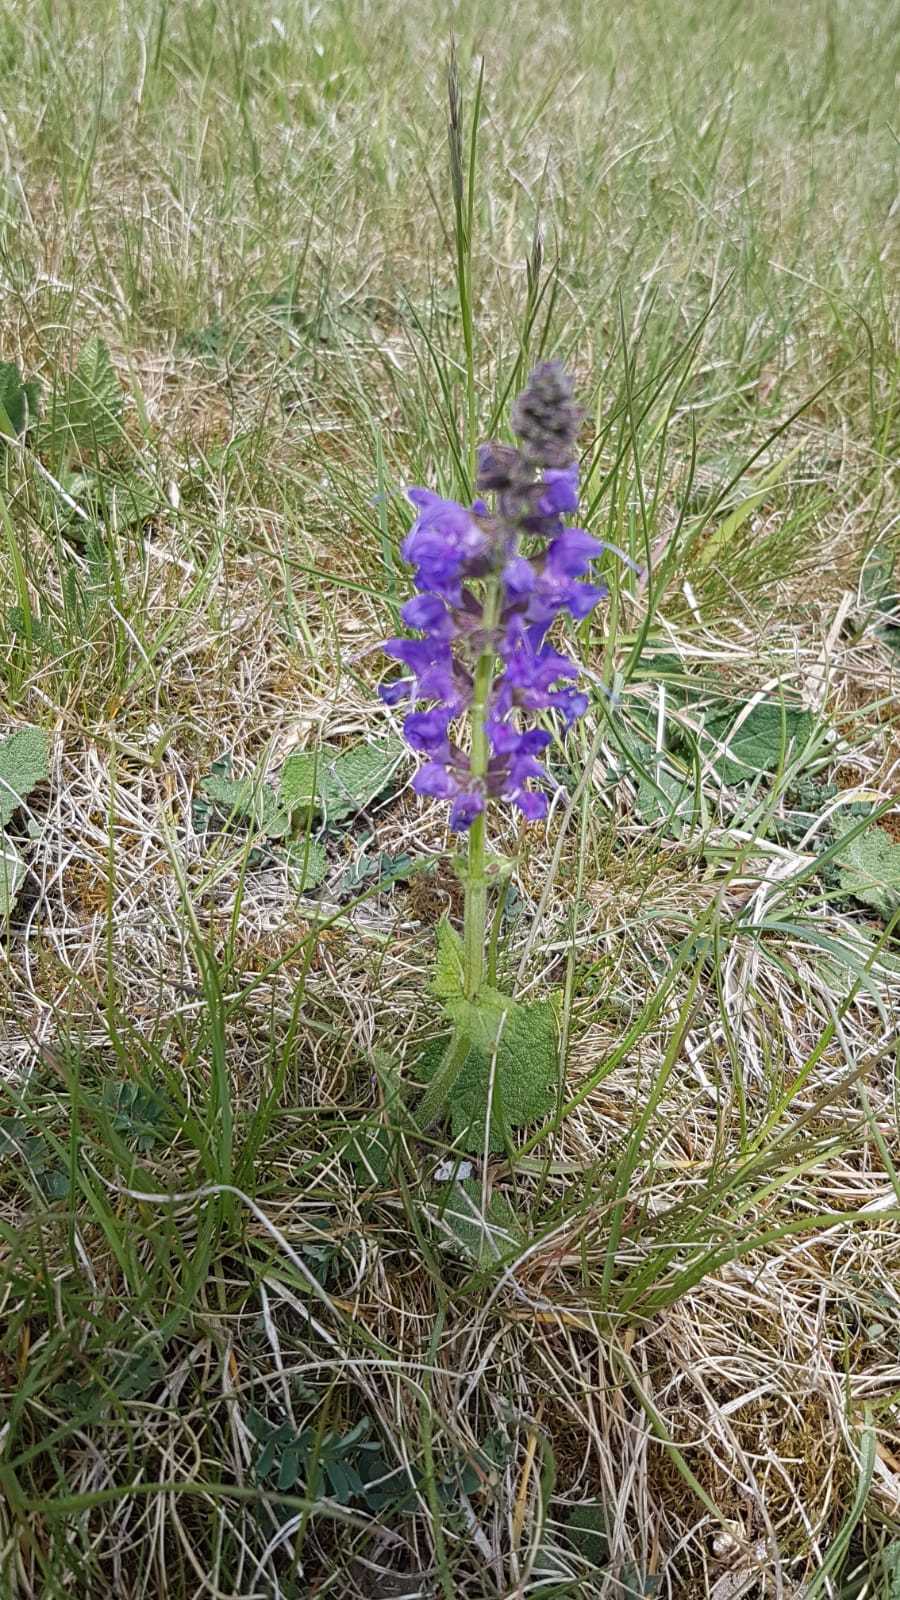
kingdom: Plantae
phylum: Tracheophyta
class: Magnoliopsida
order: Lamiales
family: Lamiaceae
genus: Salvia
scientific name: Salvia pratensis
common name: Meadow sage
